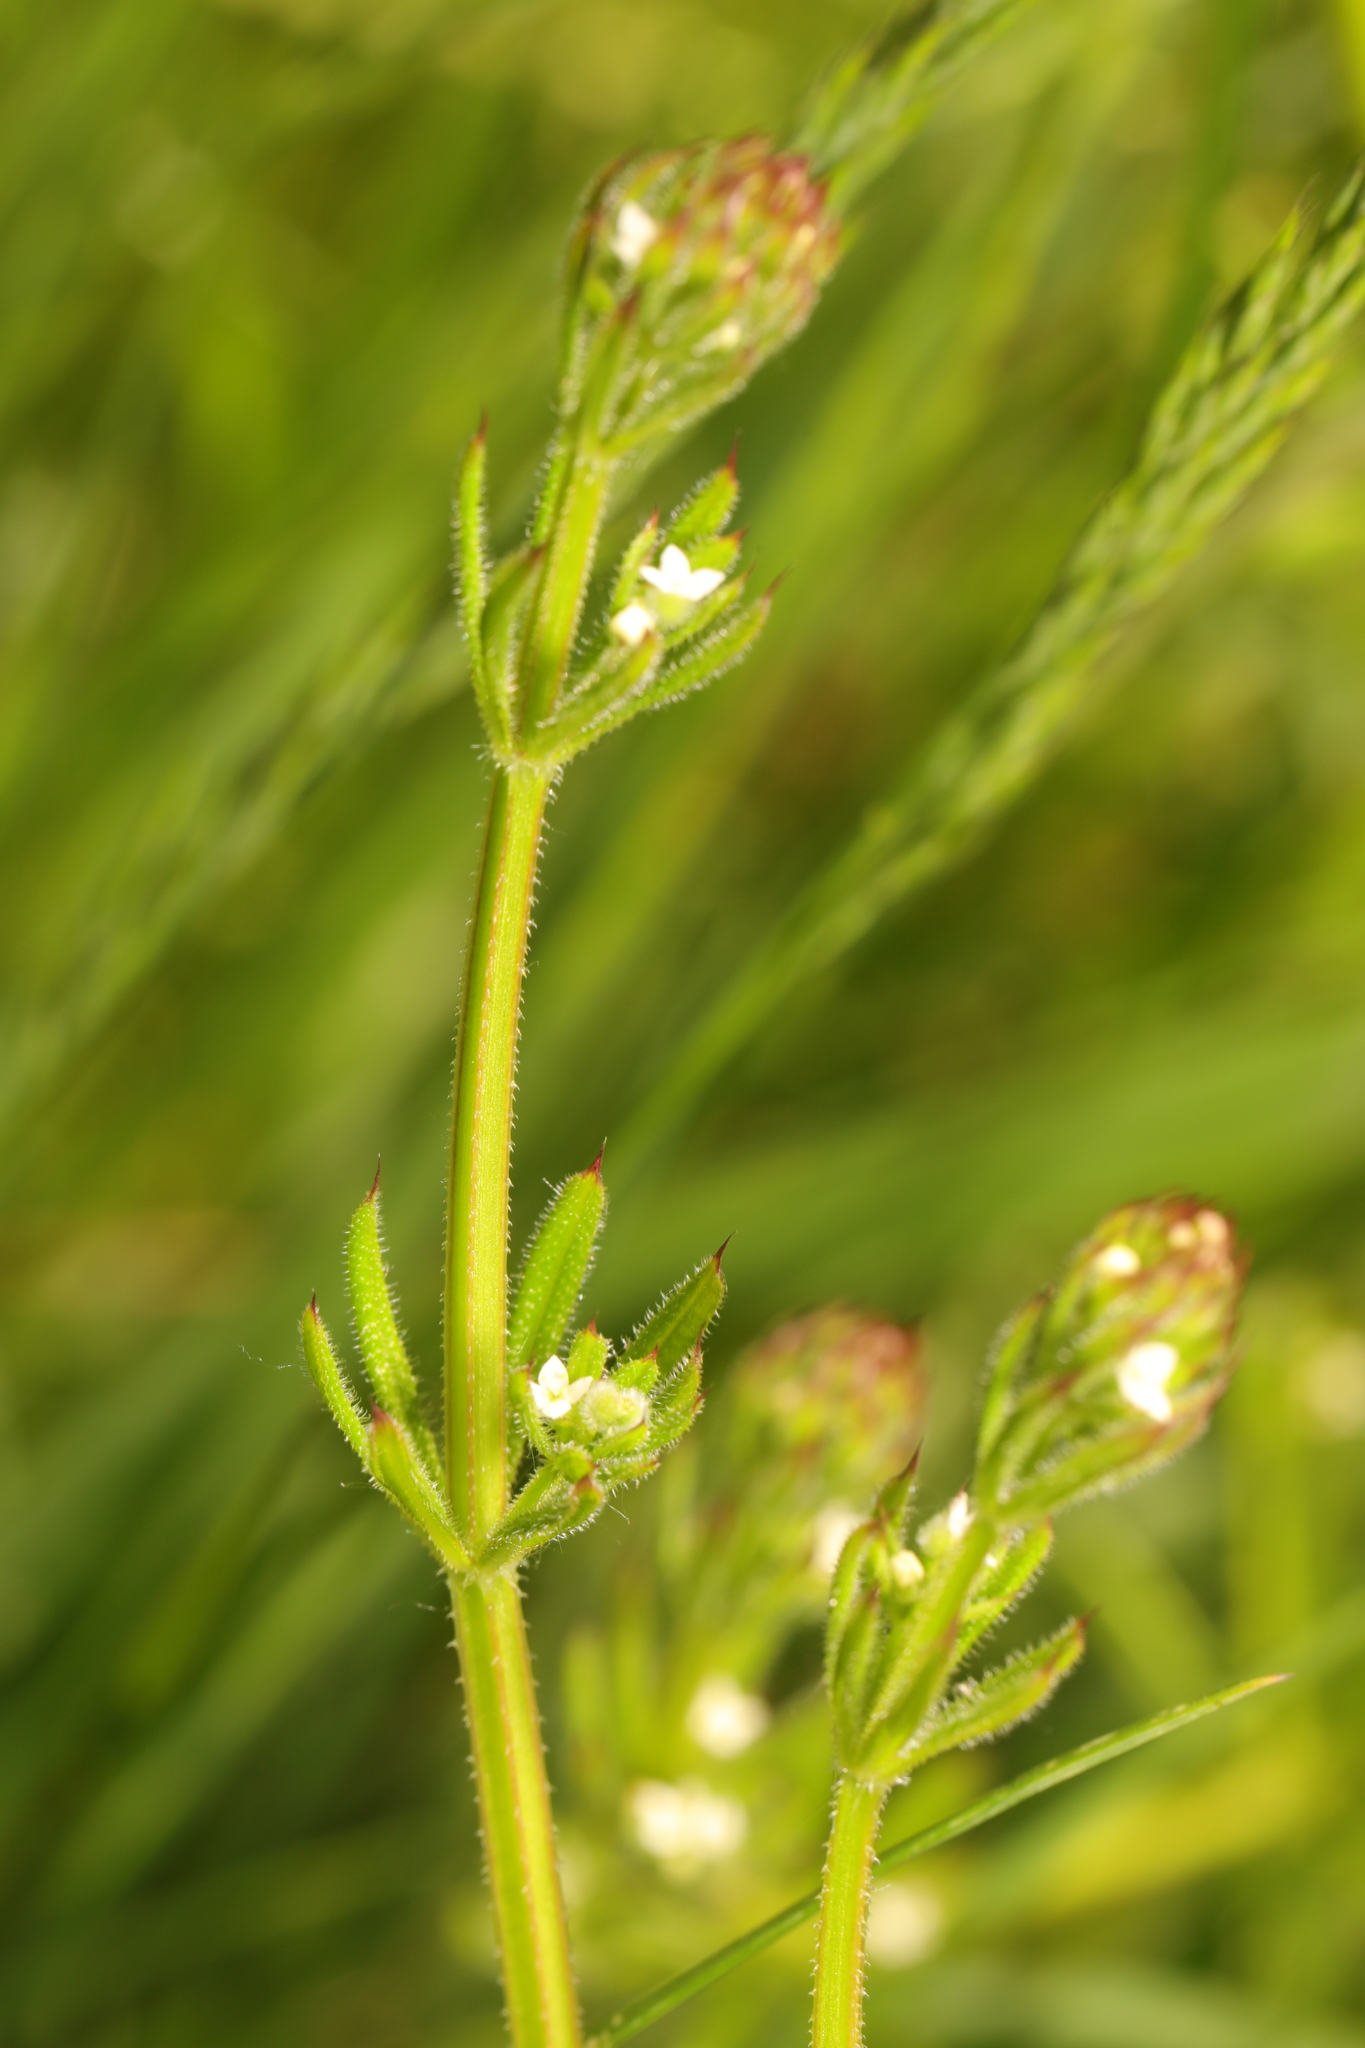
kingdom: Plantae
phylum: Tracheophyta
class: Magnoliopsida
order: Gentianales
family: Rubiaceae
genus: Galium
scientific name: Galium aparine
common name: Cleavers
